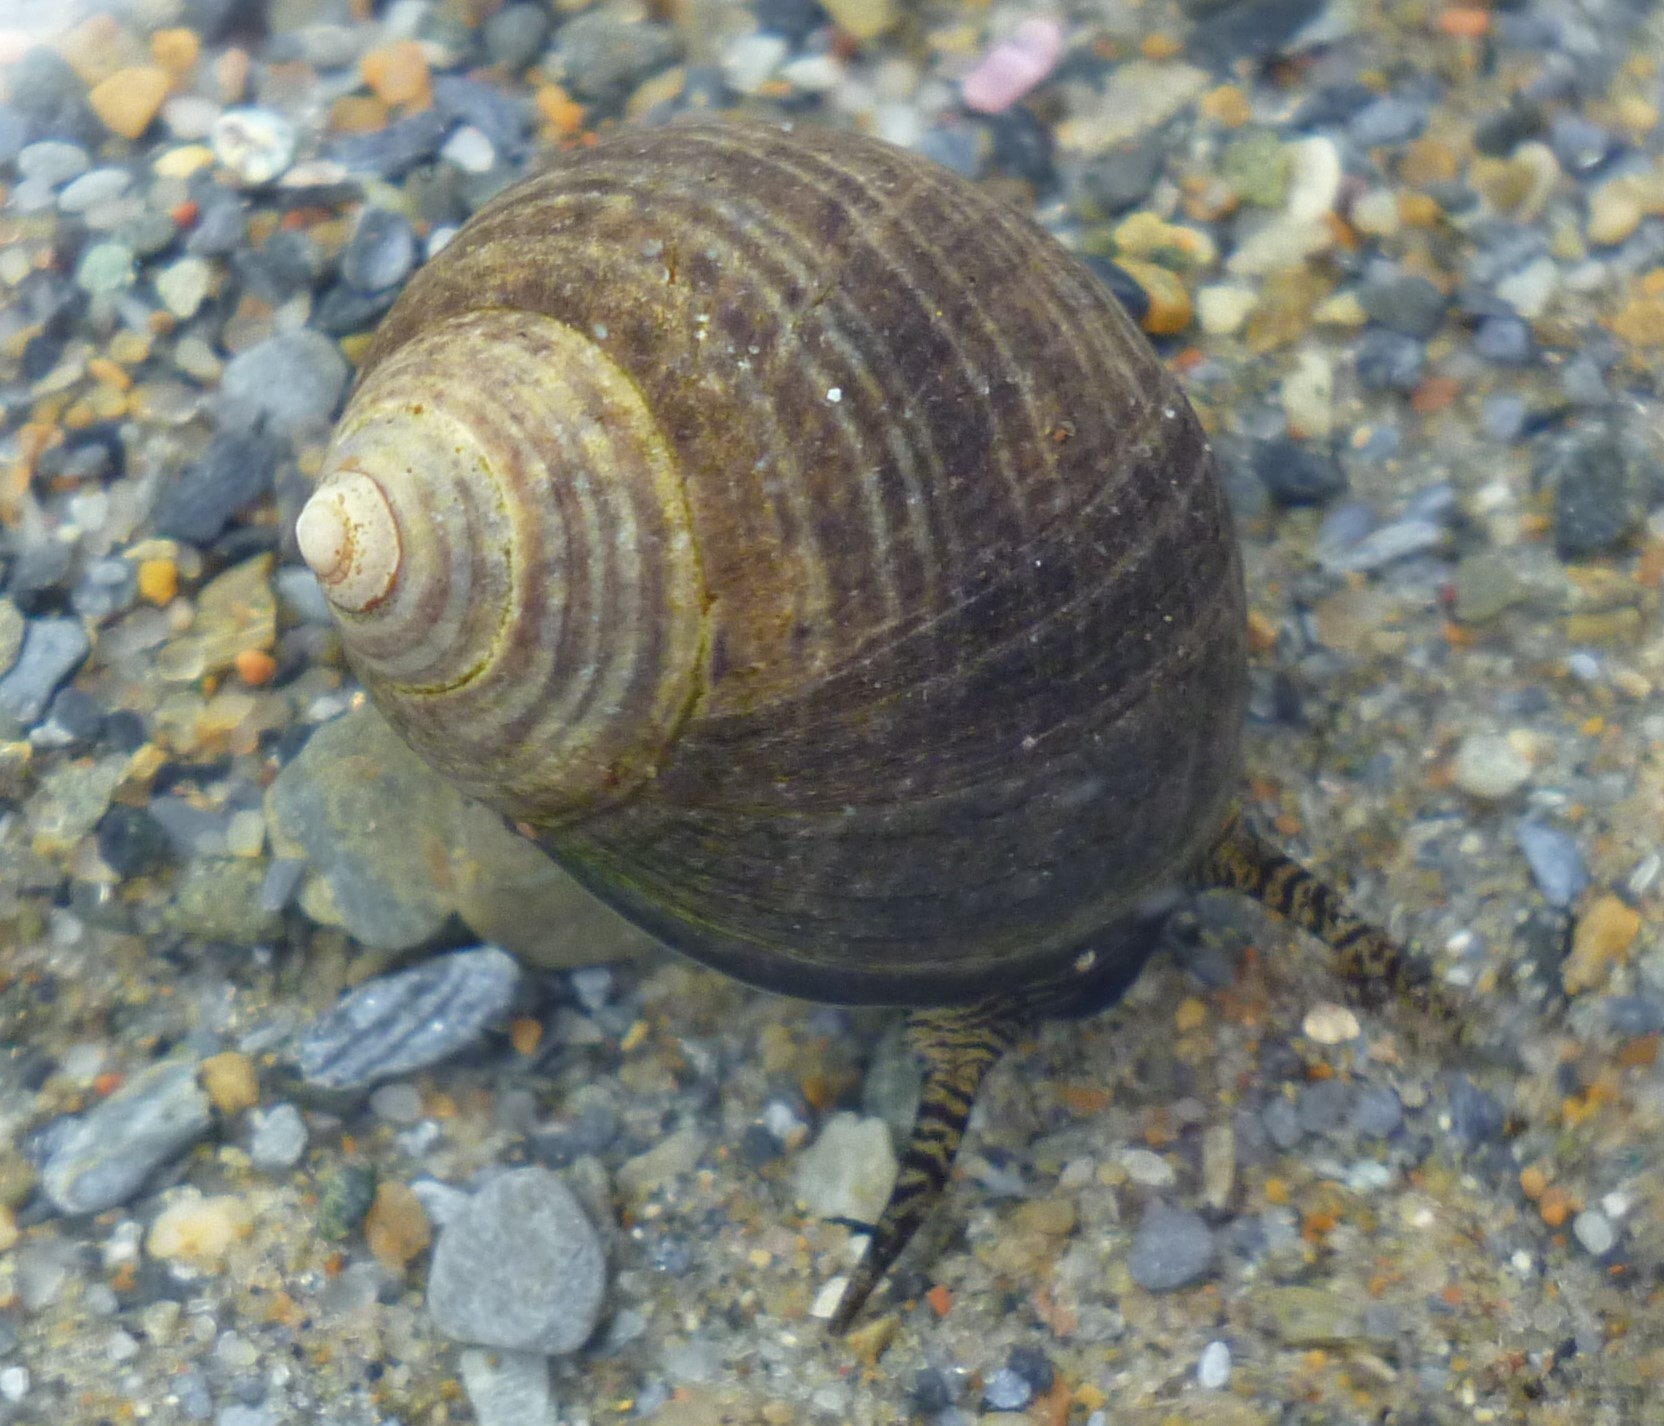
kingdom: Animalia
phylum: Mollusca
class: Gastropoda
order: Littorinimorpha
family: Littorinidae
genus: Littorina
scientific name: Littorina littorea
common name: Common periwinkle
